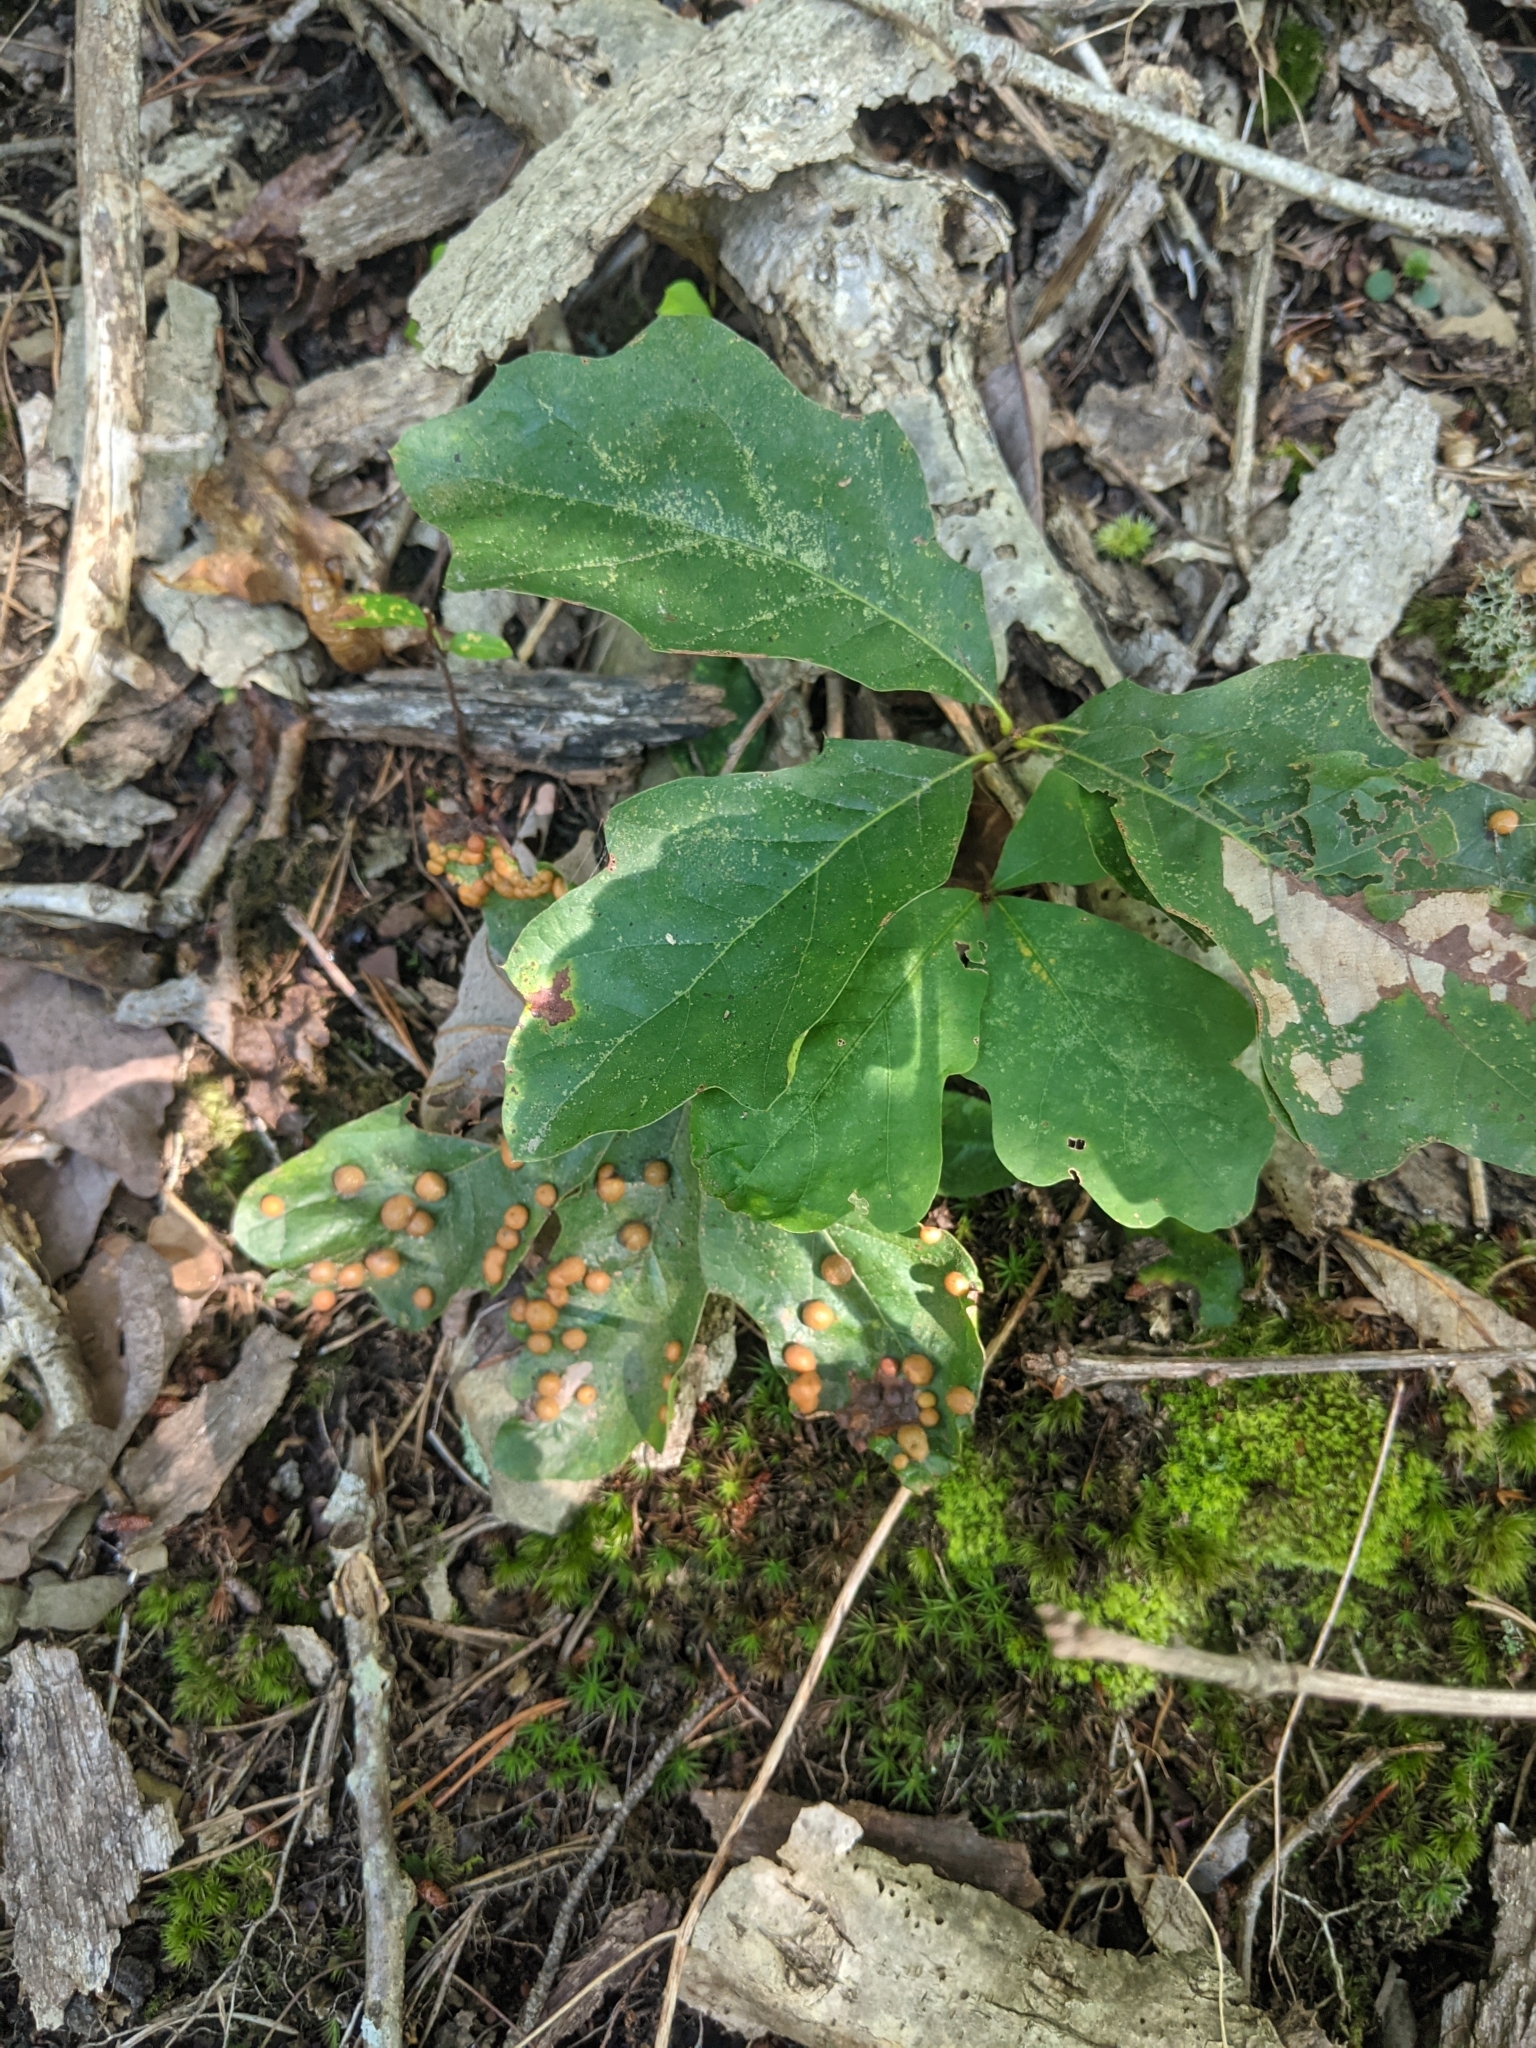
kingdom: Animalia
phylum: Arthropoda
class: Insecta
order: Diptera
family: Cecidomyiidae
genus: Polystepha
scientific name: Polystepha pilulae
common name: Oak leaf gall midge
